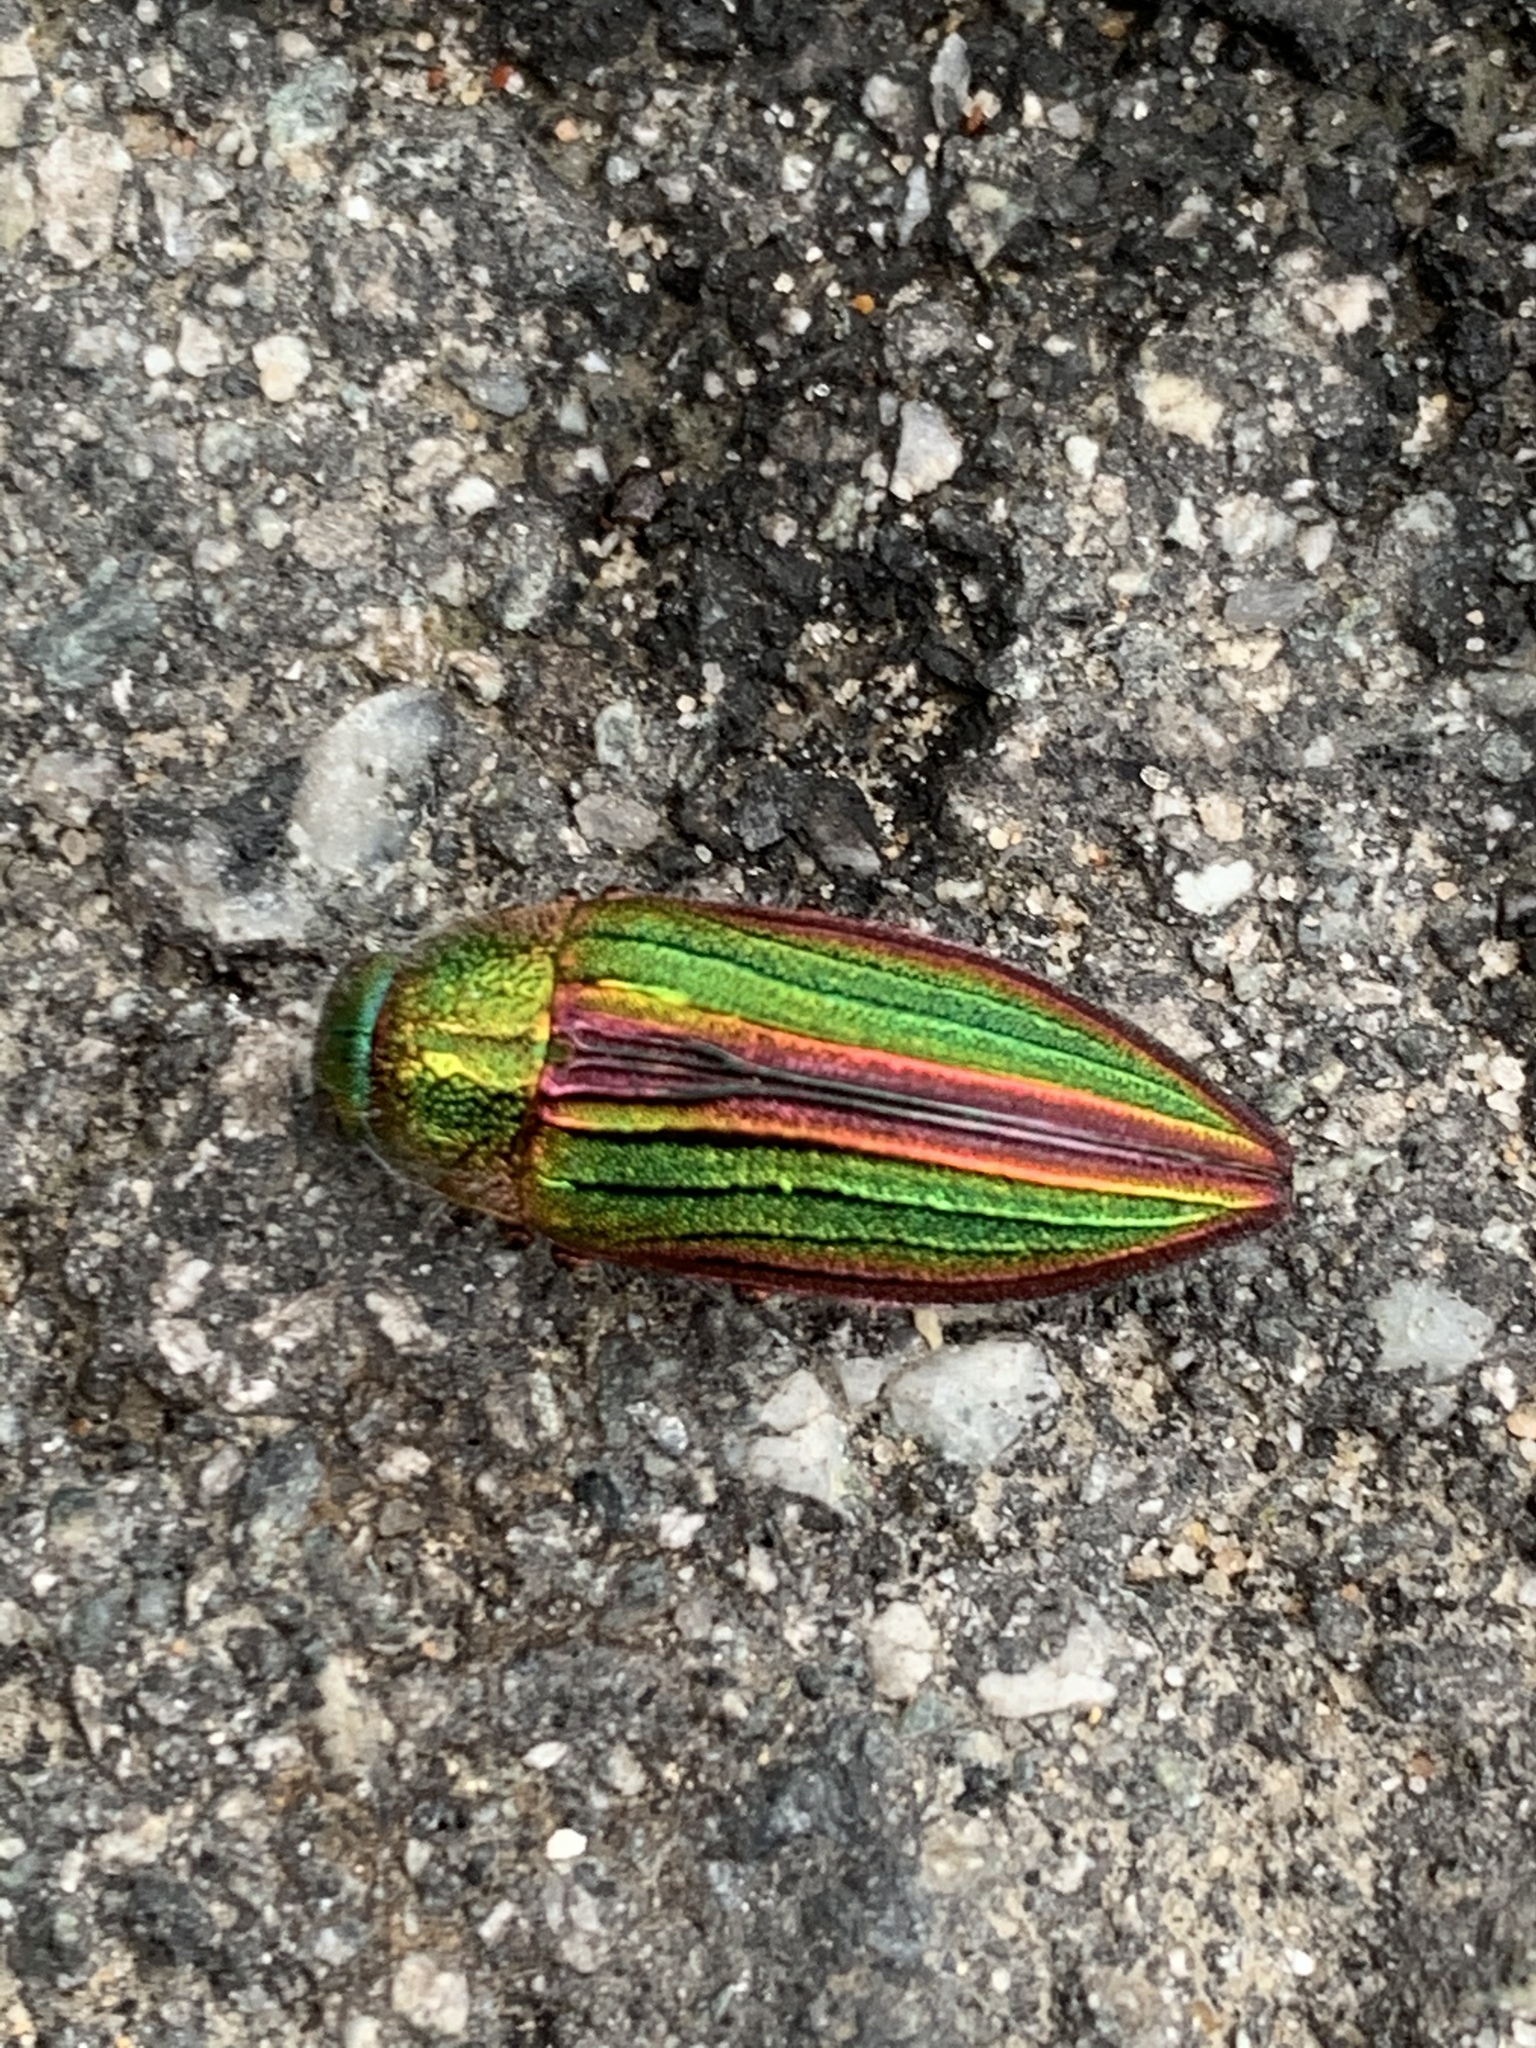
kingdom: Animalia
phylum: Arthropoda
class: Insecta
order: Coleoptera
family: Buprestidae
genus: Buprestis
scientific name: Buprestis aurulenta
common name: Golden buprestid
